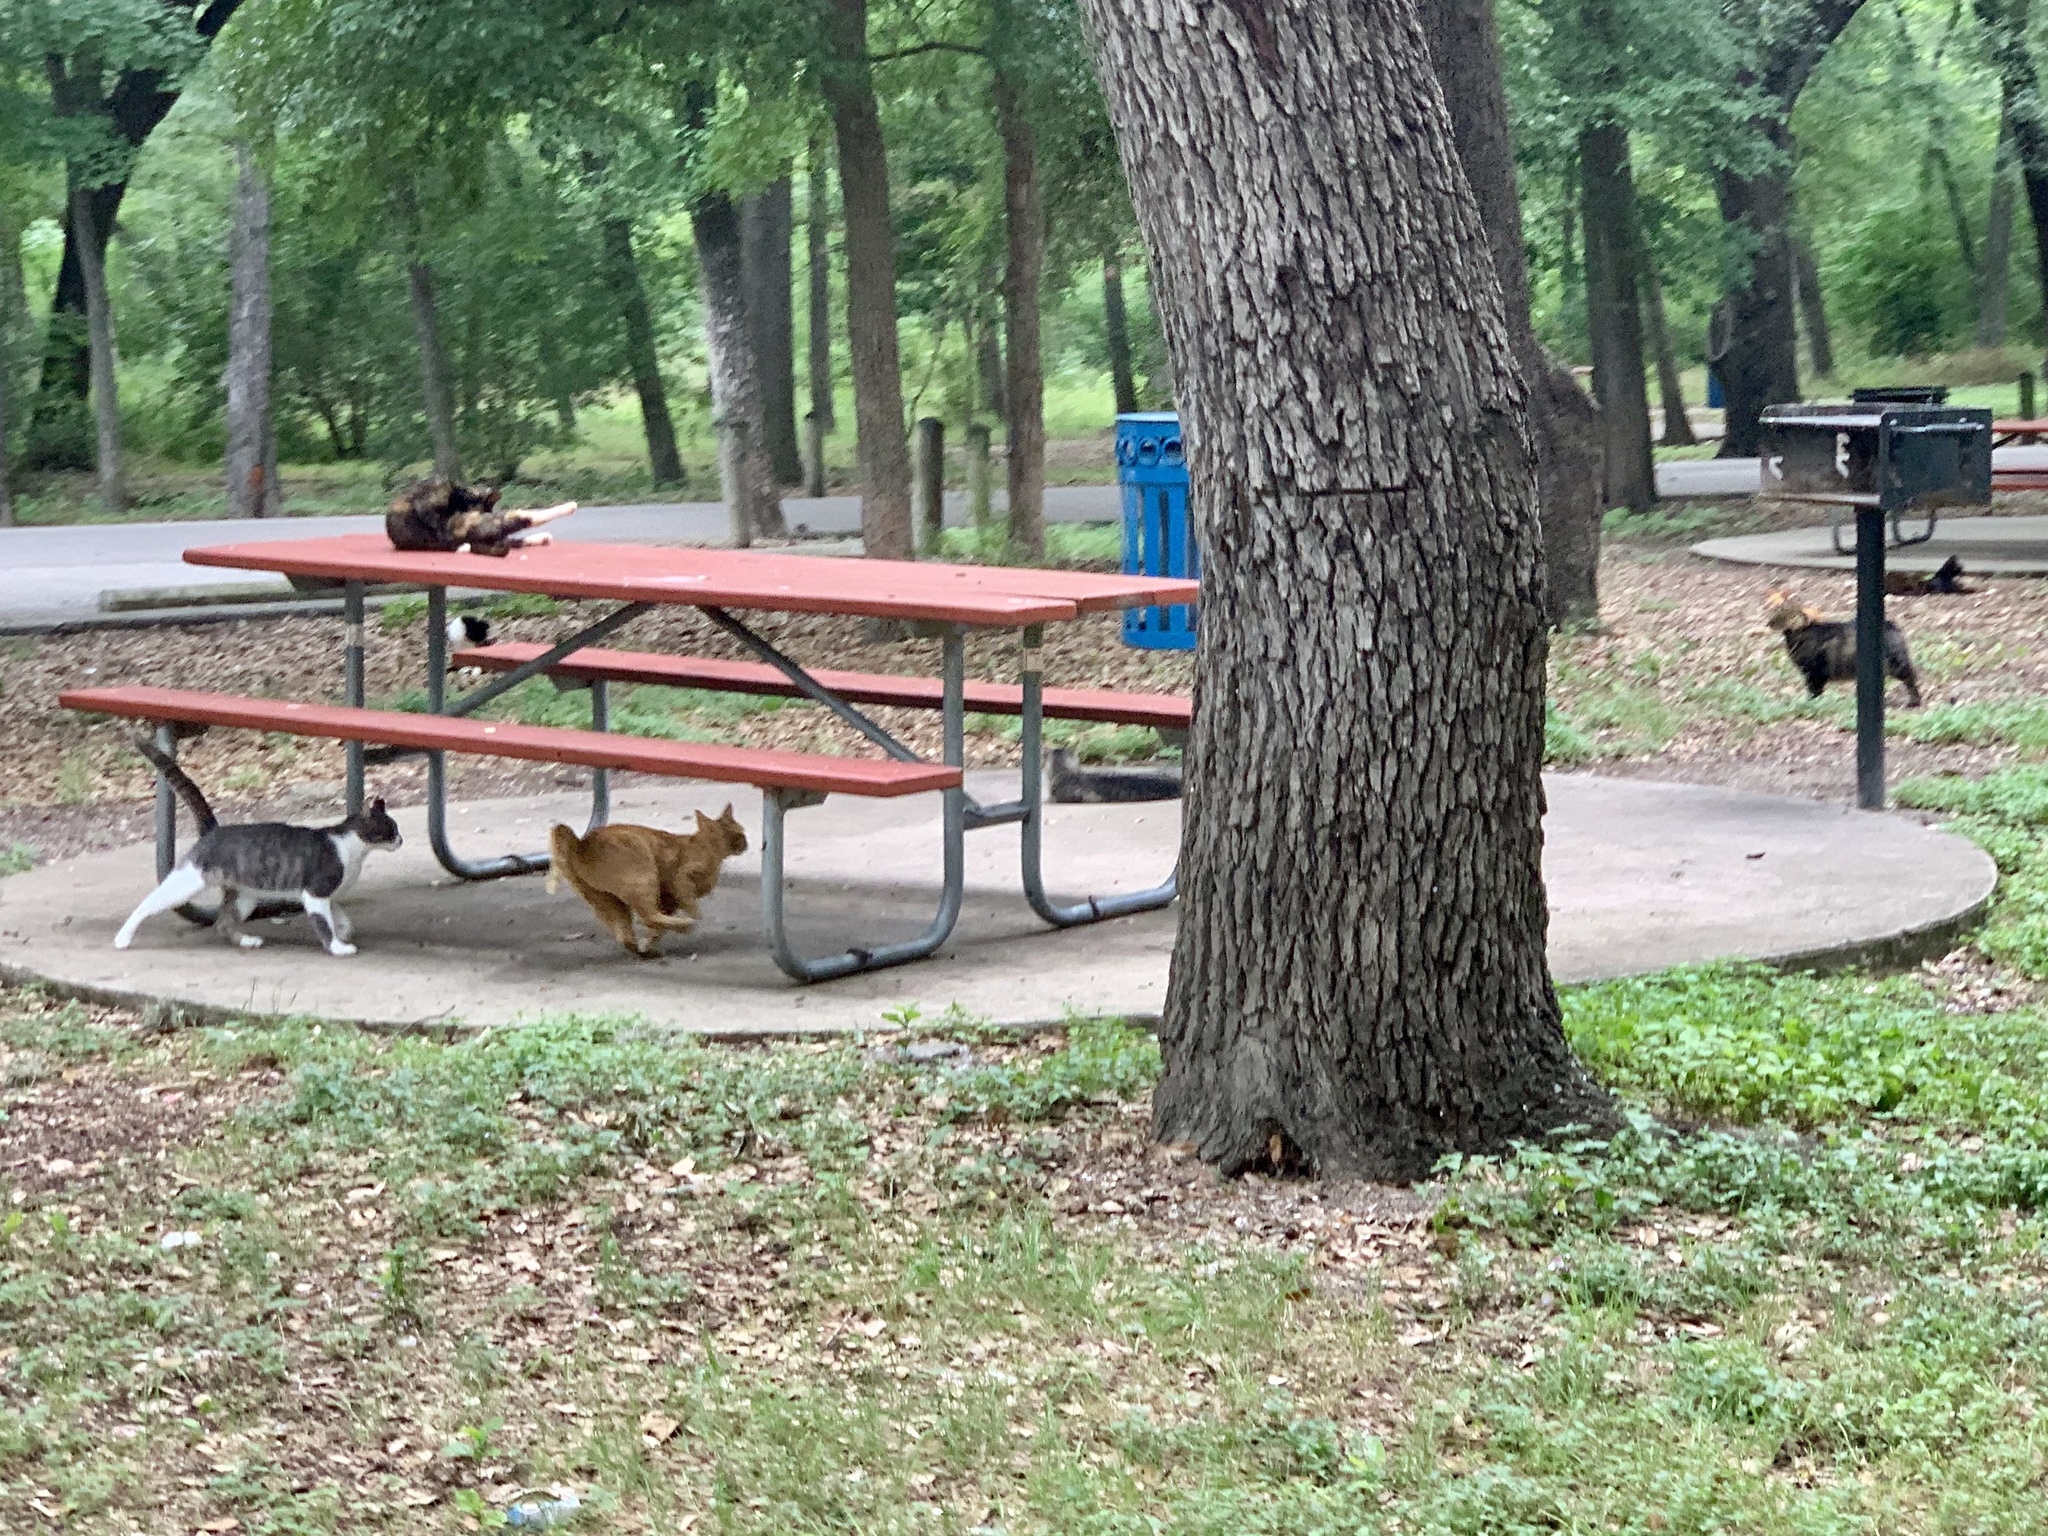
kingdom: Animalia
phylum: Chordata
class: Mammalia
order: Carnivora
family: Felidae
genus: Felis
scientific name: Felis catus
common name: Domestic cat
